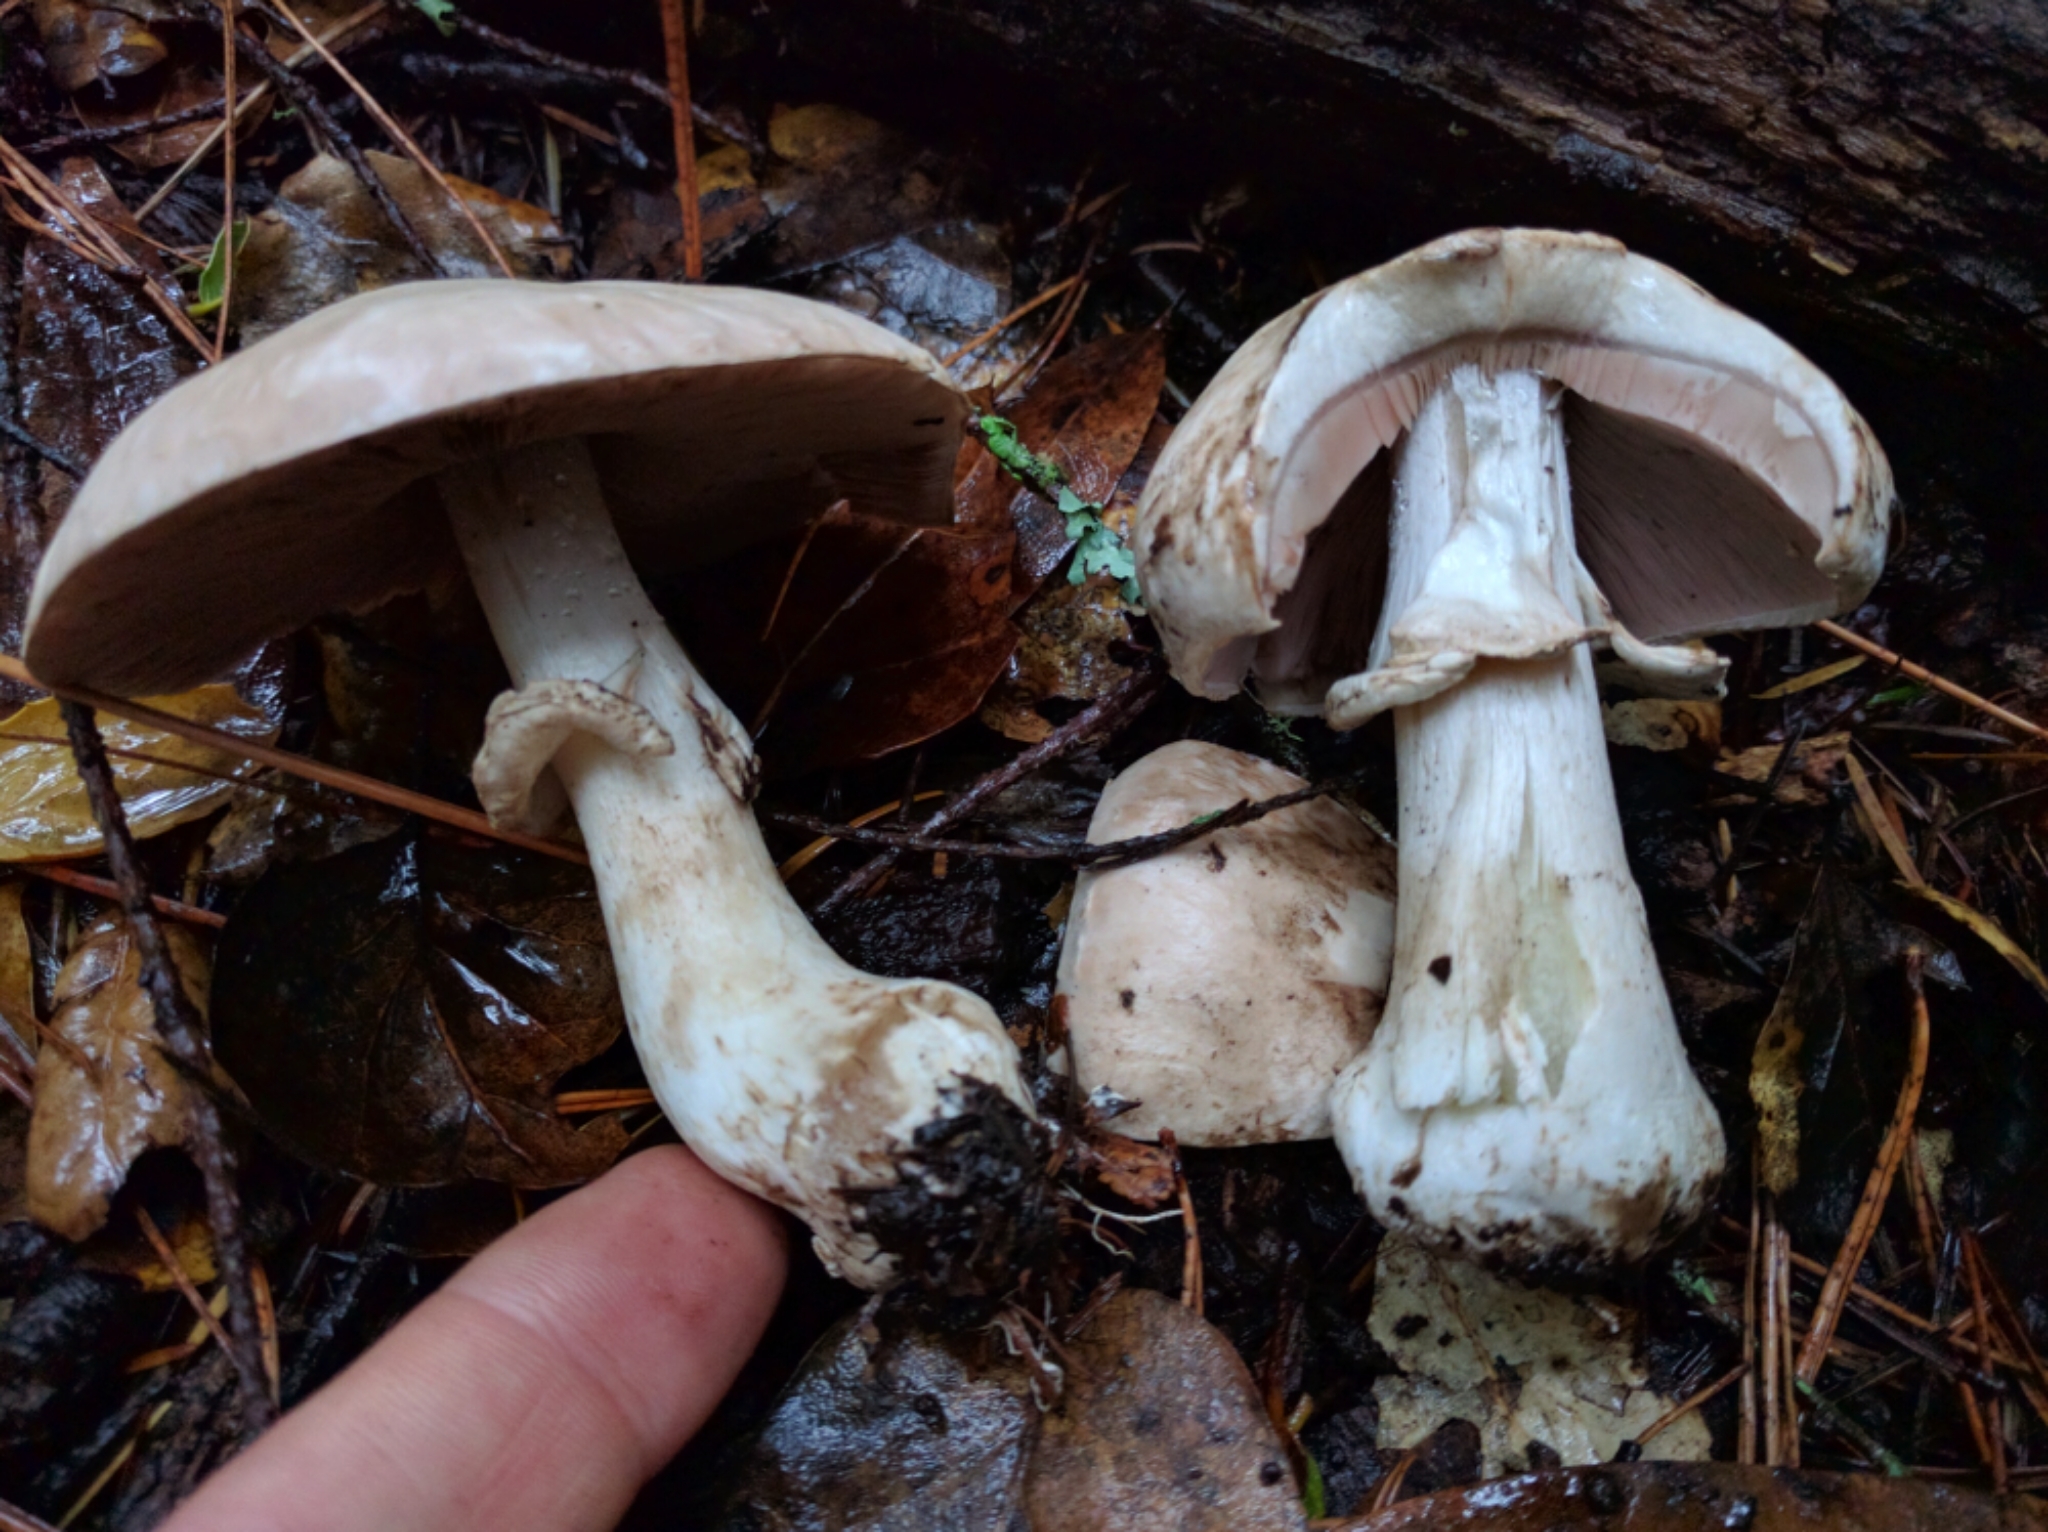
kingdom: Fungi
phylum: Basidiomycota
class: Agaricomycetes
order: Agaricales
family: Agaricaceae
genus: Agaricus
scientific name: Agaricus hondensis
